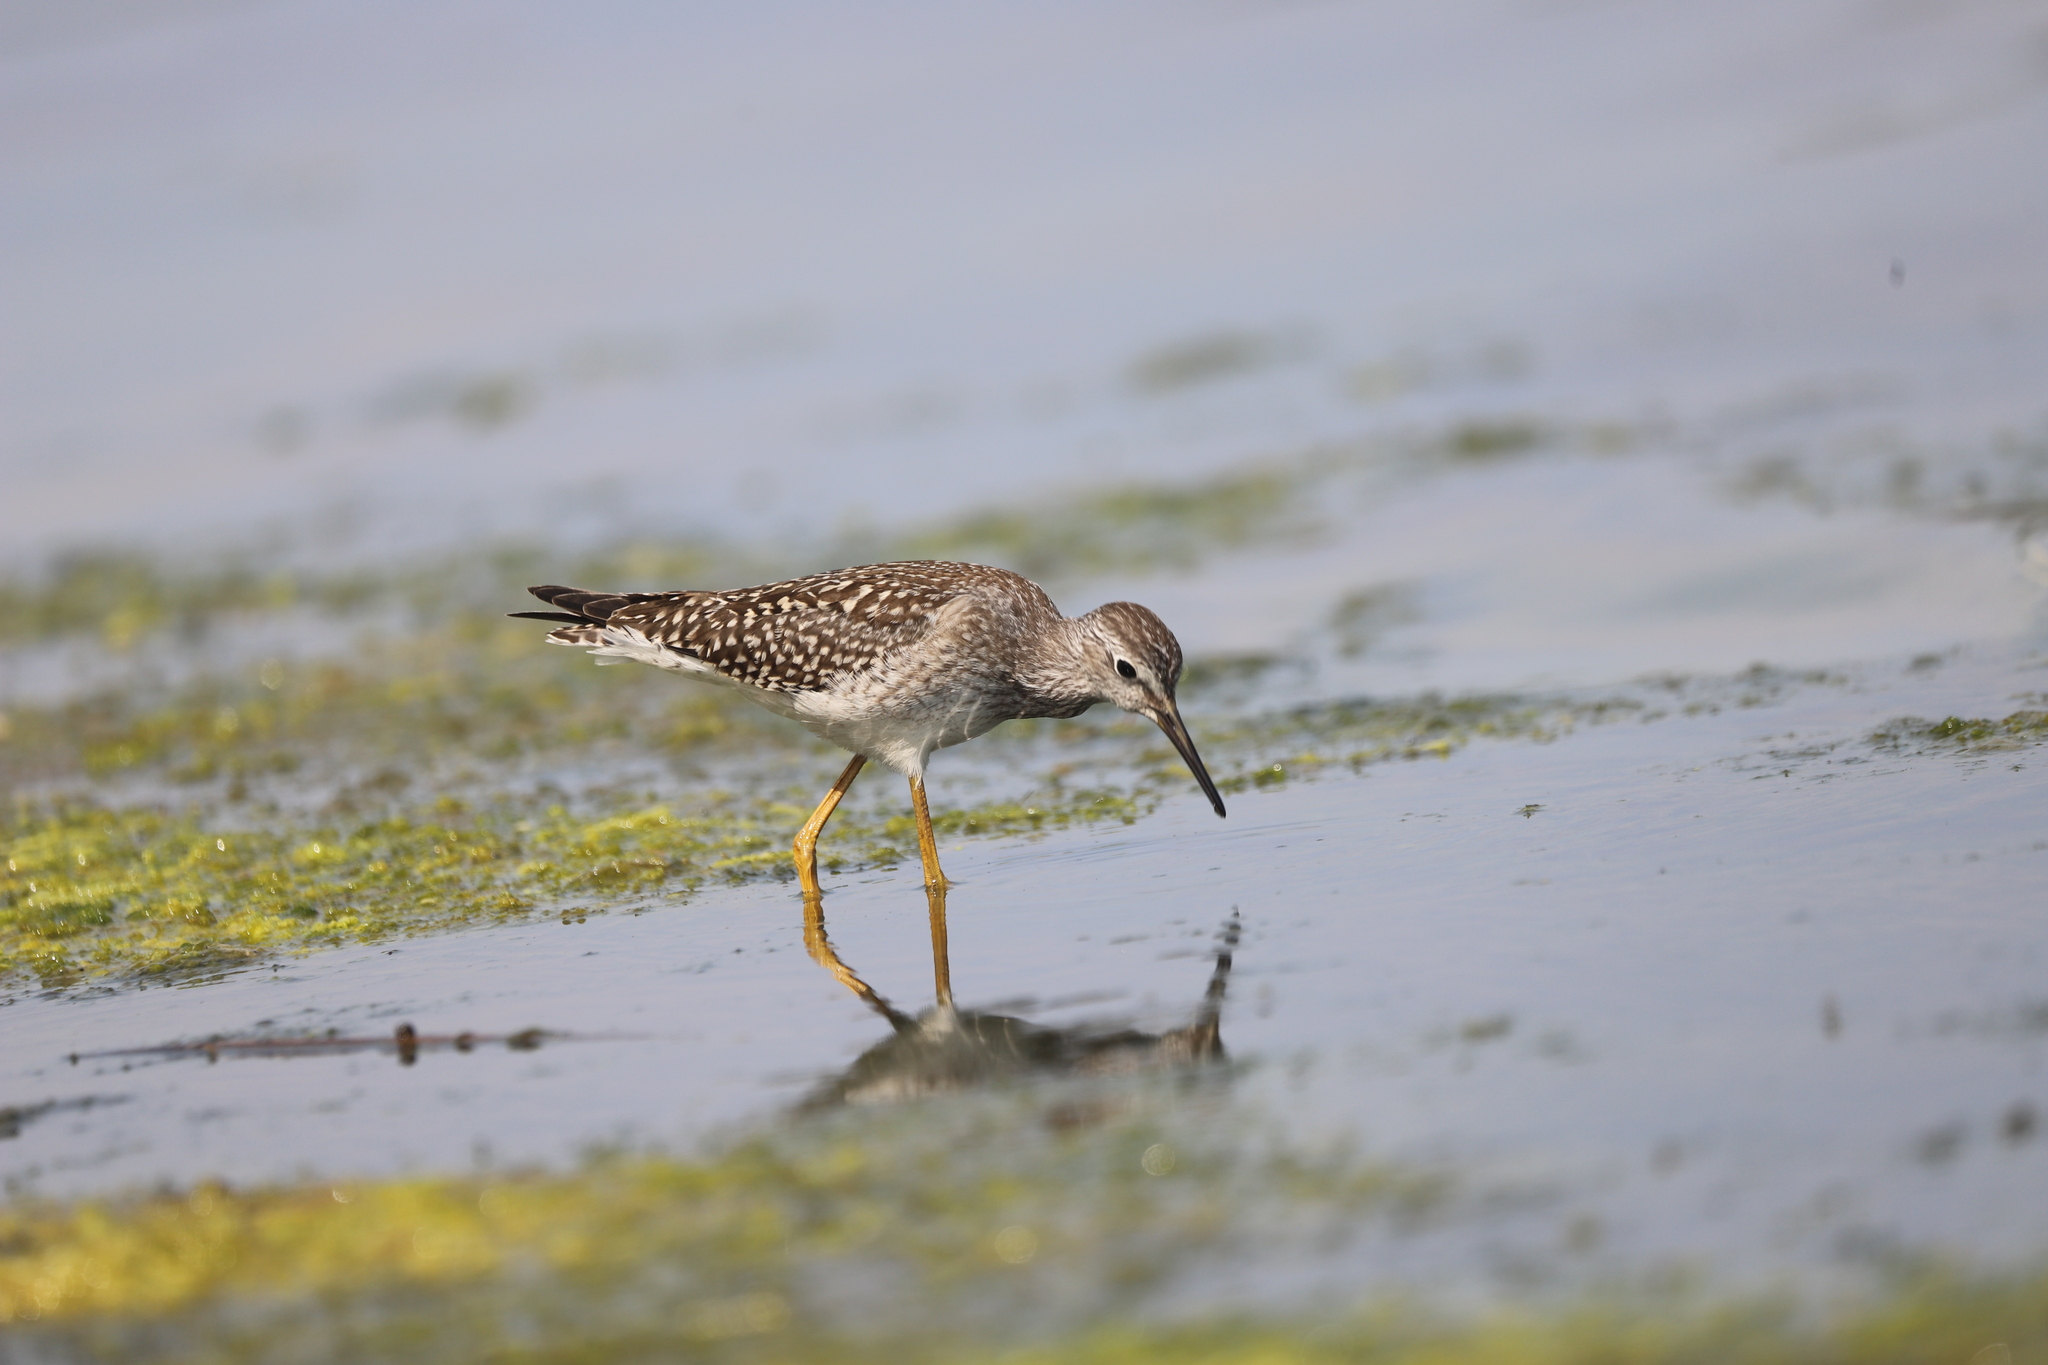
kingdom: Animalia
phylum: Chordata
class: Aves
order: Charadriiformes
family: Scolopacidae
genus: Tringa
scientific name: Tringa flavipes
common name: Lesser yellowlegs
